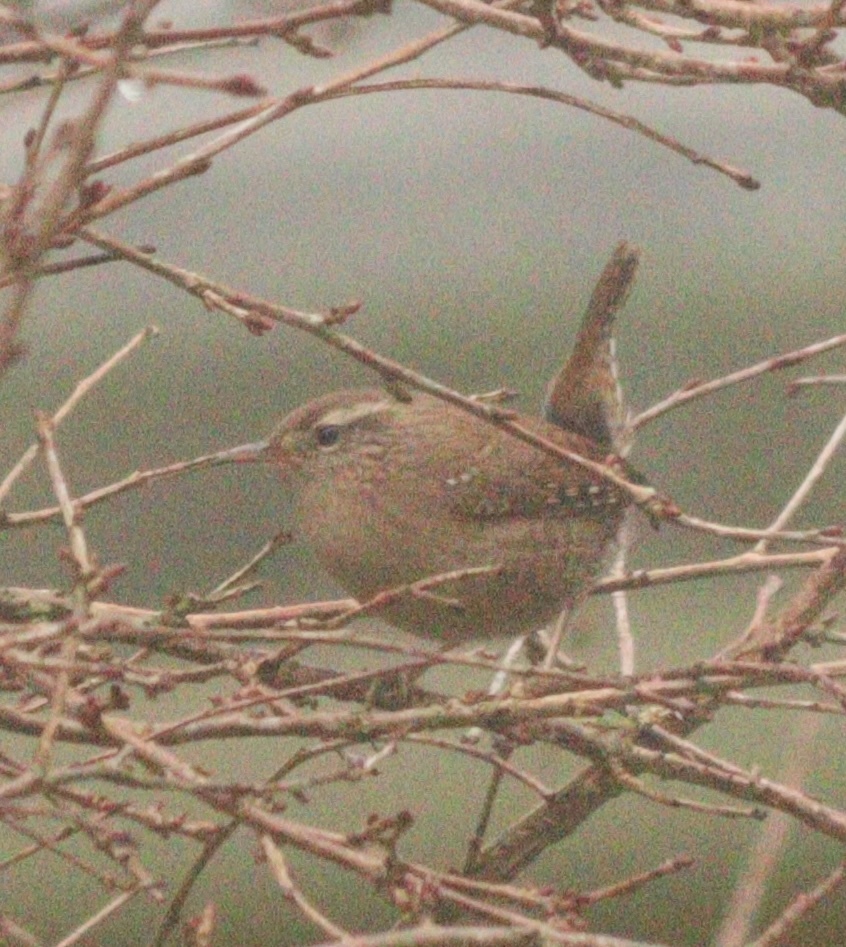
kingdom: Animalia
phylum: Chordata
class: Aves
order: Passeriformes
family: Troglodytidae
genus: Troglodytes
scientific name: Troglodytes troglodytes
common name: Eurasian wren
